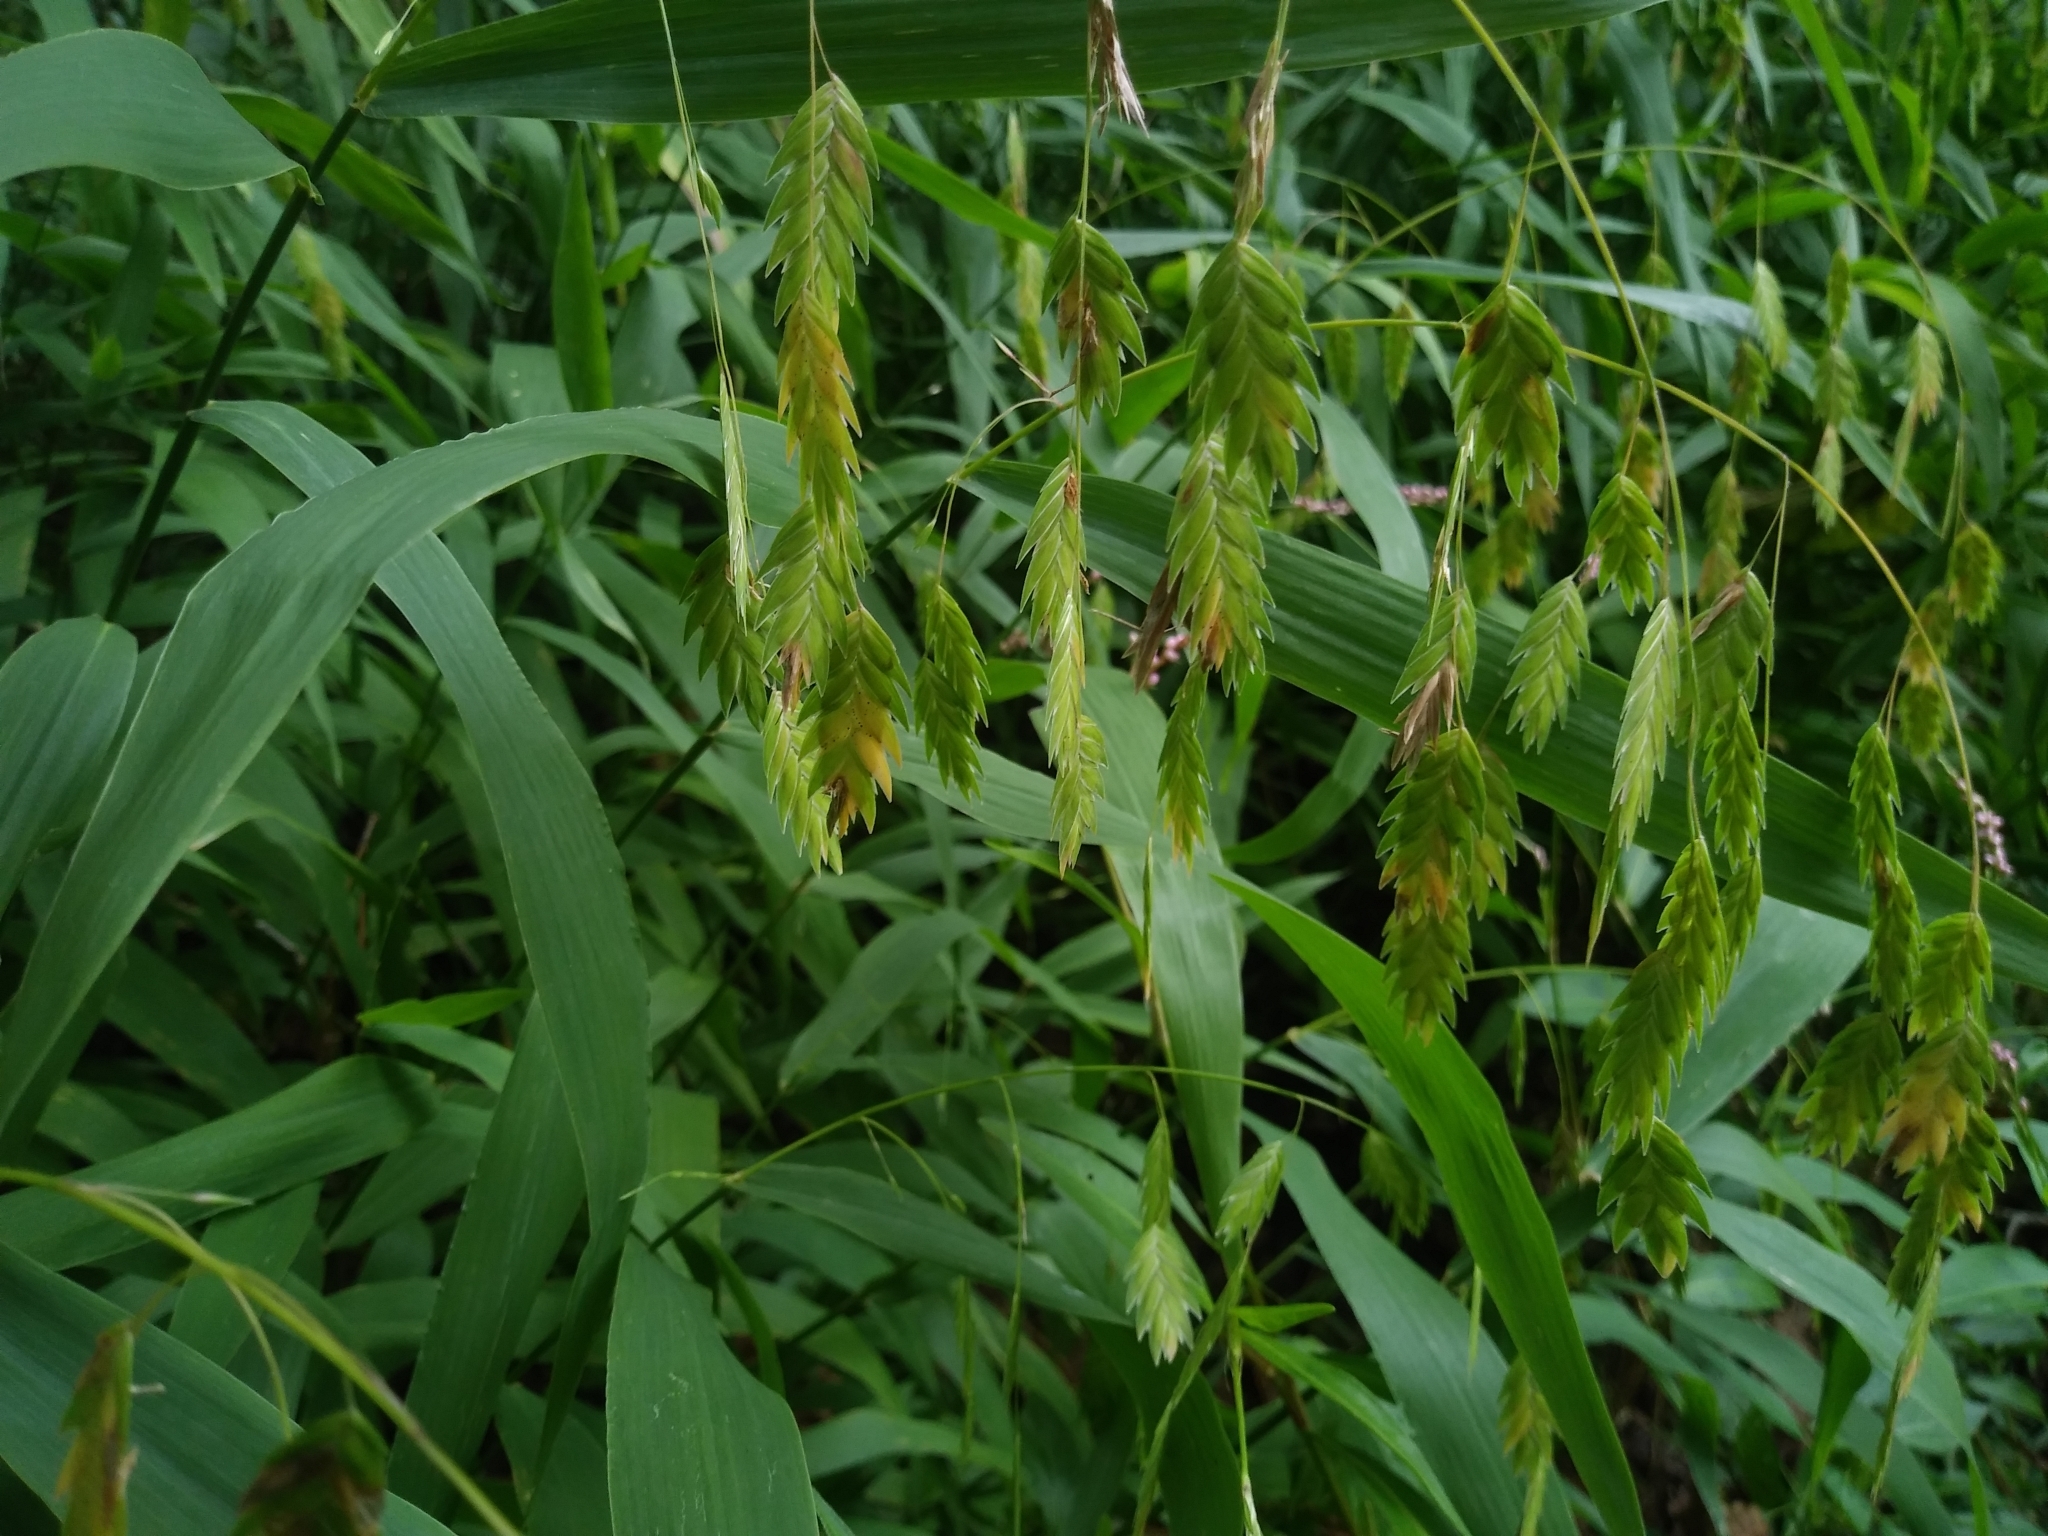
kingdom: Plantae
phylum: Tracheophyta
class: Liliopsida
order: Poales
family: Poaceae
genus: Chasmanthium
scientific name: Chasmanthium latifolium
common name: Broad-leaved chasmanthium
